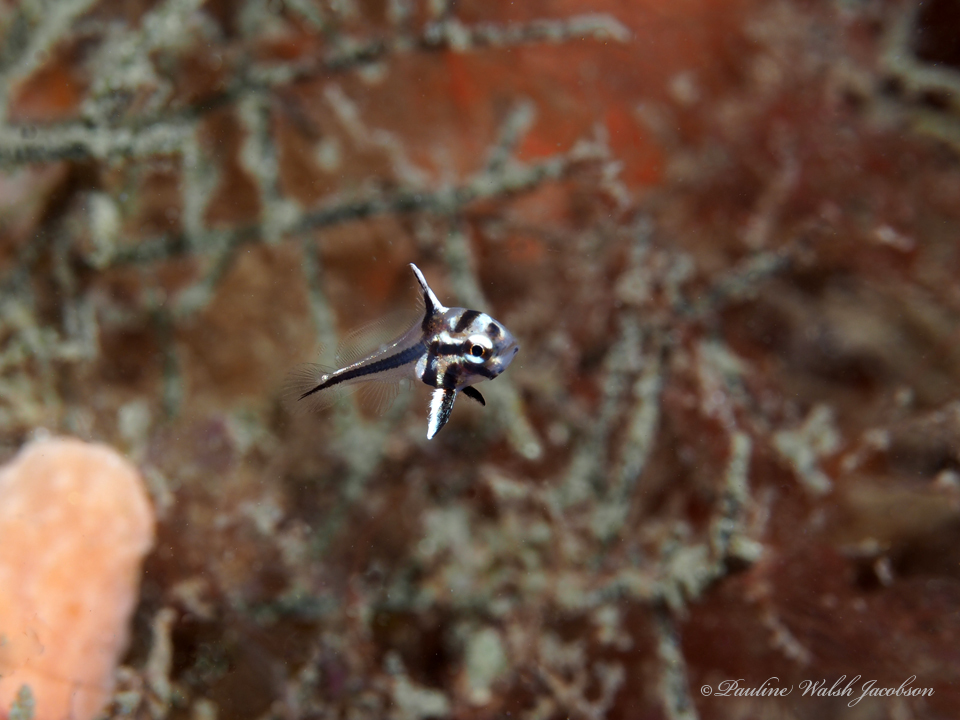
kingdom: Animalia
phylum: Chordata
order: Perciformes
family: Sciaenidae
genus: Pareques
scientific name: Pareques acuminatus
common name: High-hat
